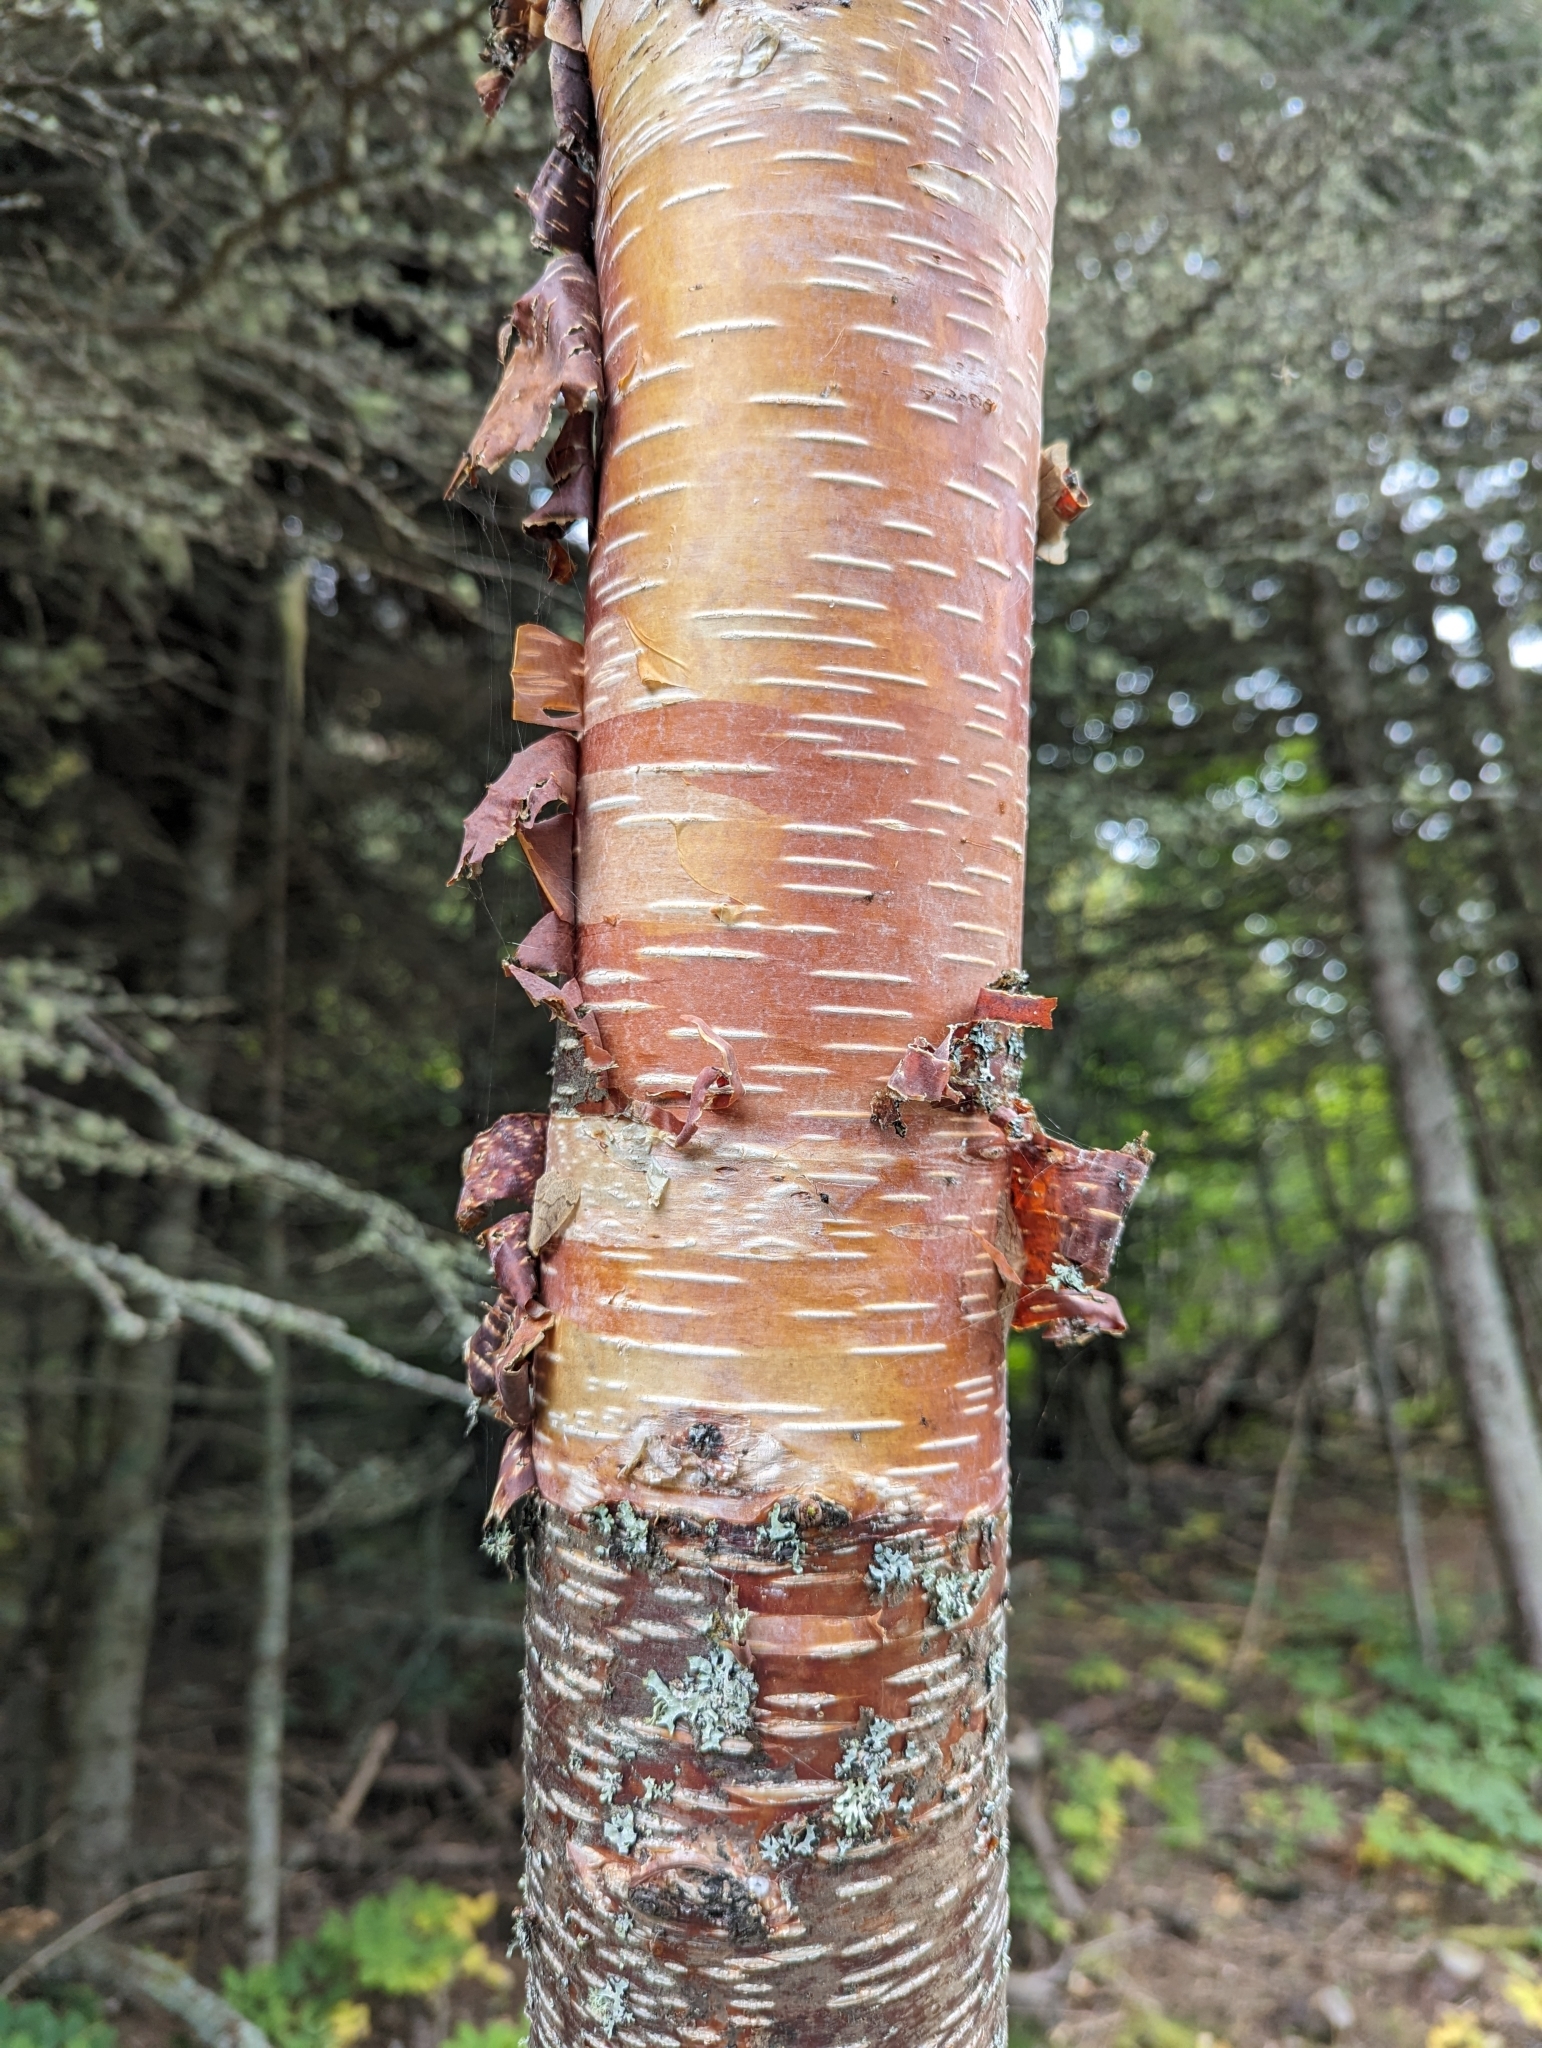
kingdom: Plantae
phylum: Tracheophyta
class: Magnoliopsida
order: Fagales
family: Betulaceae
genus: Betula
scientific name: Betula cordifolia
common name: Mountain white birch
